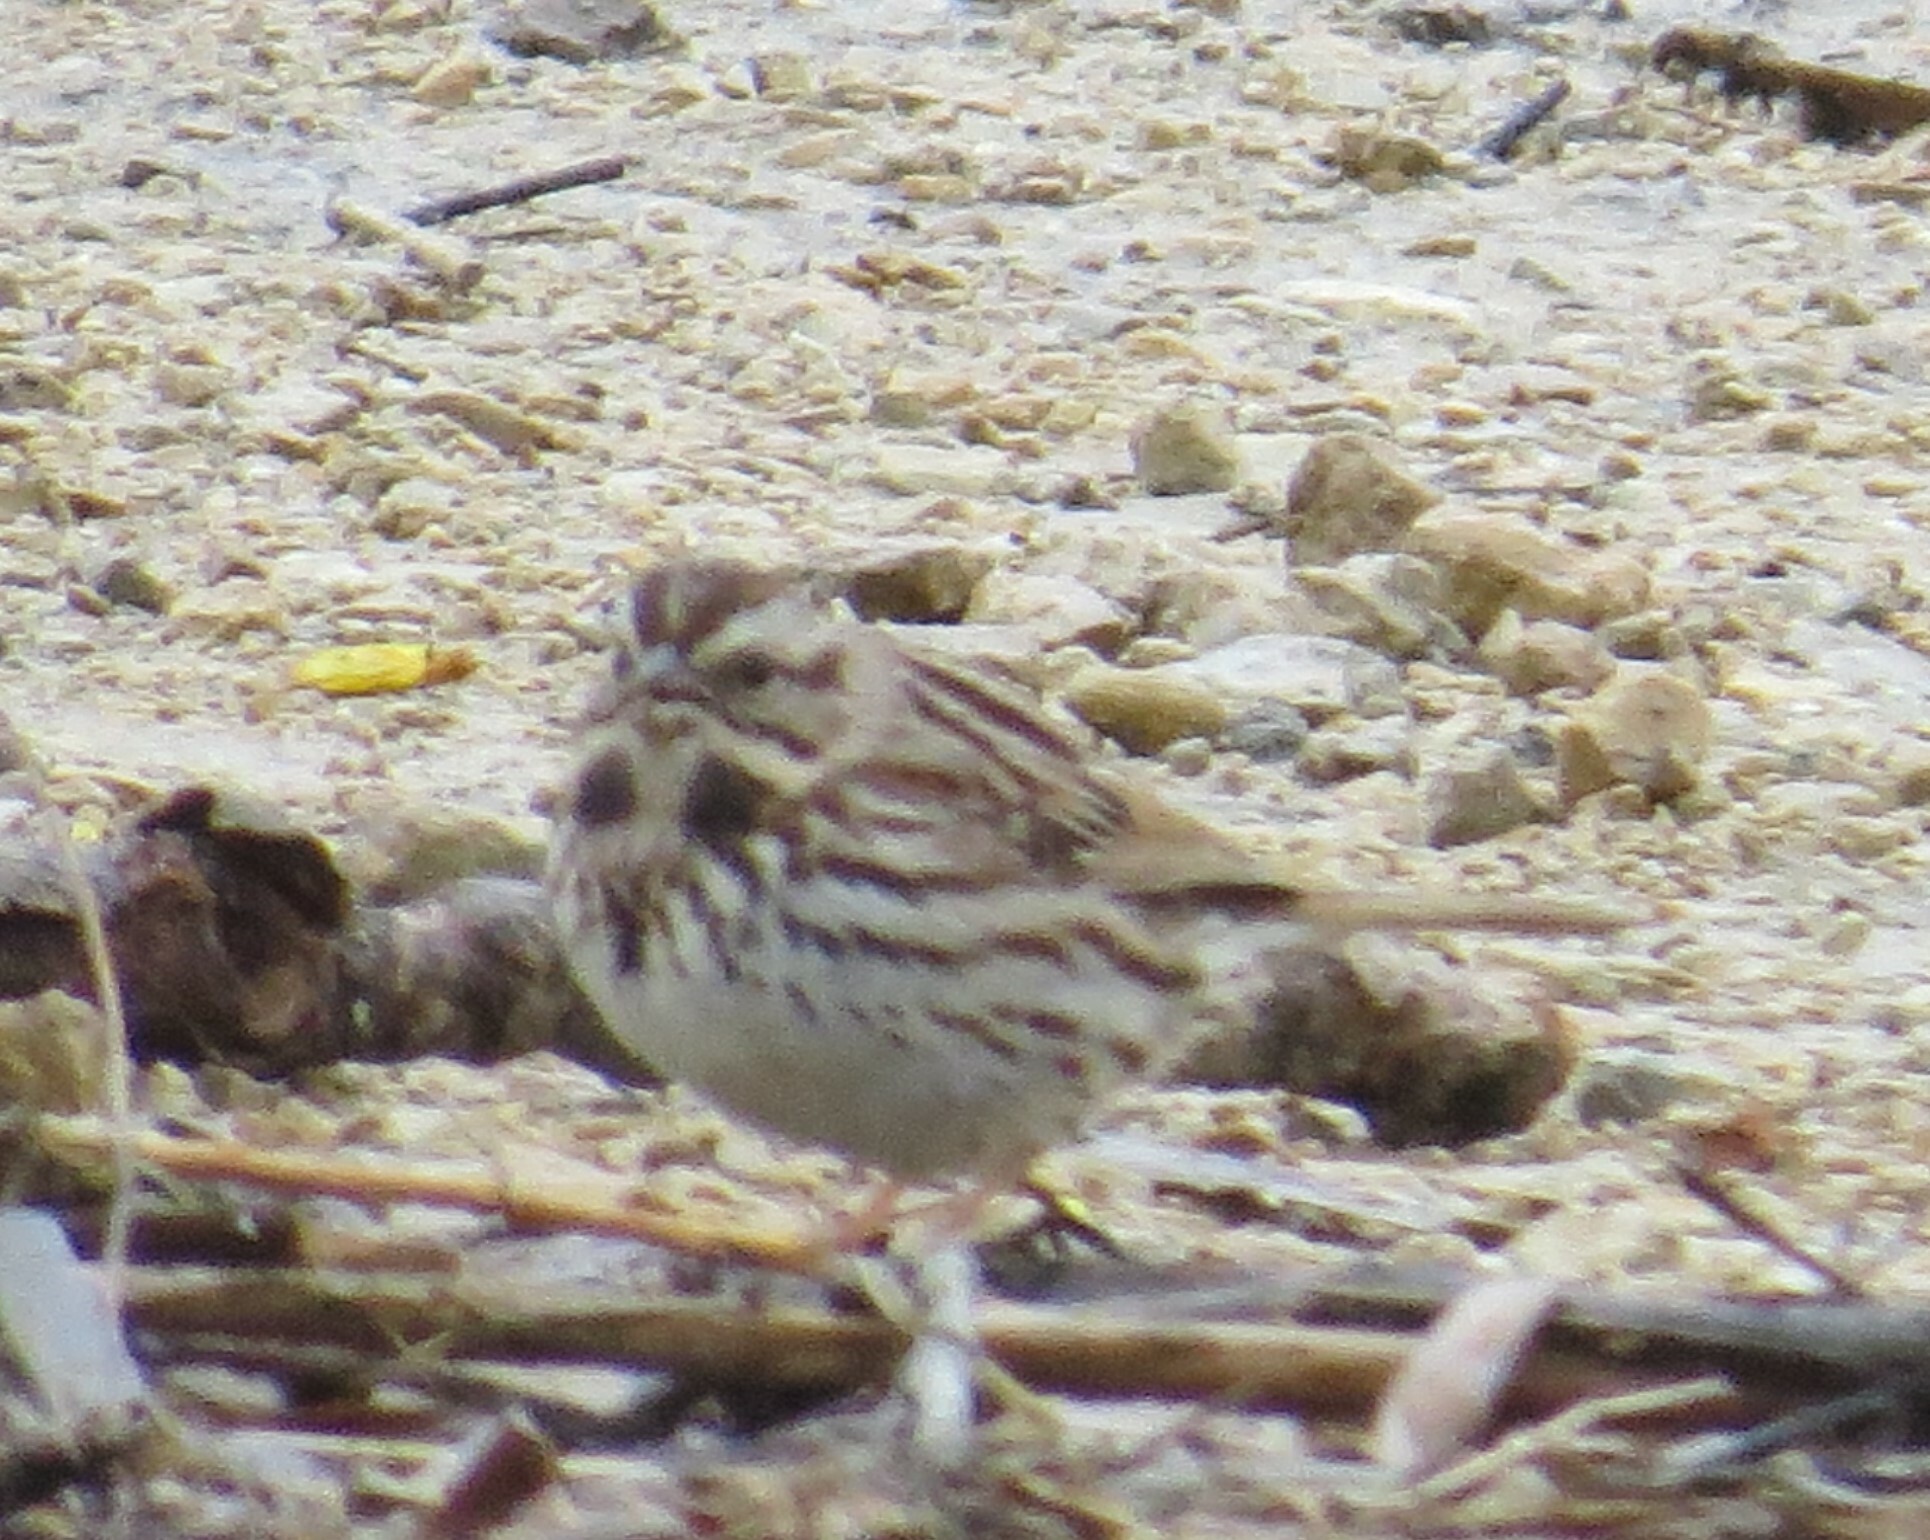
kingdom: Animalia
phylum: Chordata
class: Aves
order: Passeriformes
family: Passerellidae
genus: Melospiza
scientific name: Melospiza melodia
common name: Song sparrow
